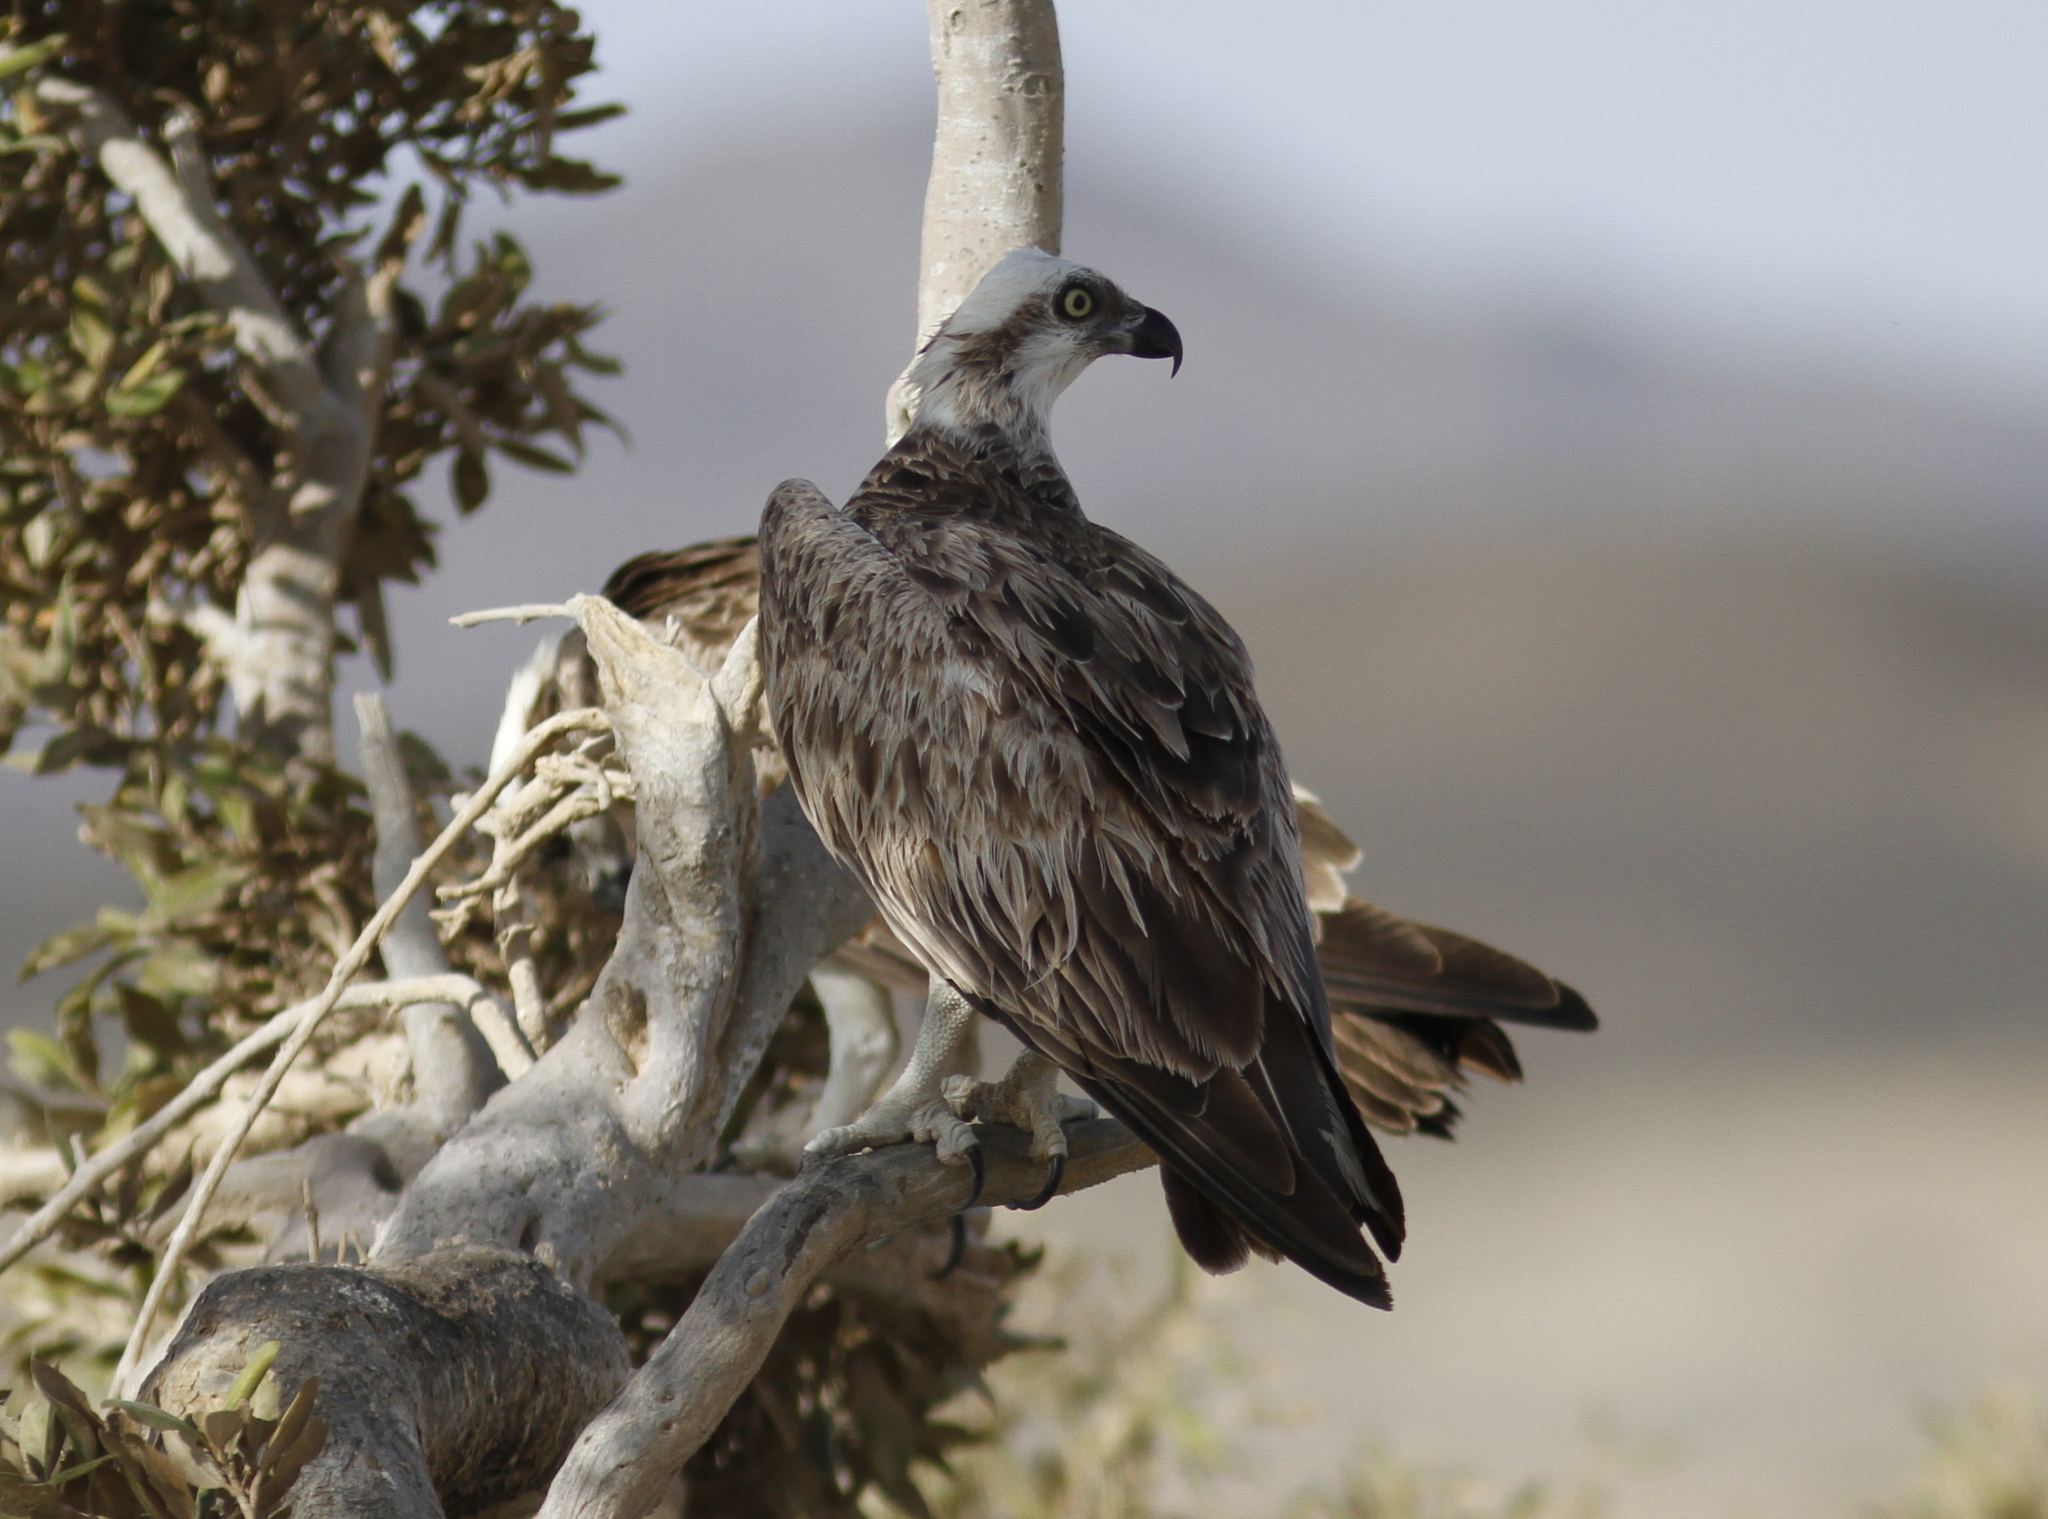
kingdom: Animalia
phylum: Chordata
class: Aves
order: Accipitriformes
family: Pandionidae
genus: Pandion
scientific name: Pandion haliaetus
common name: Osprey
